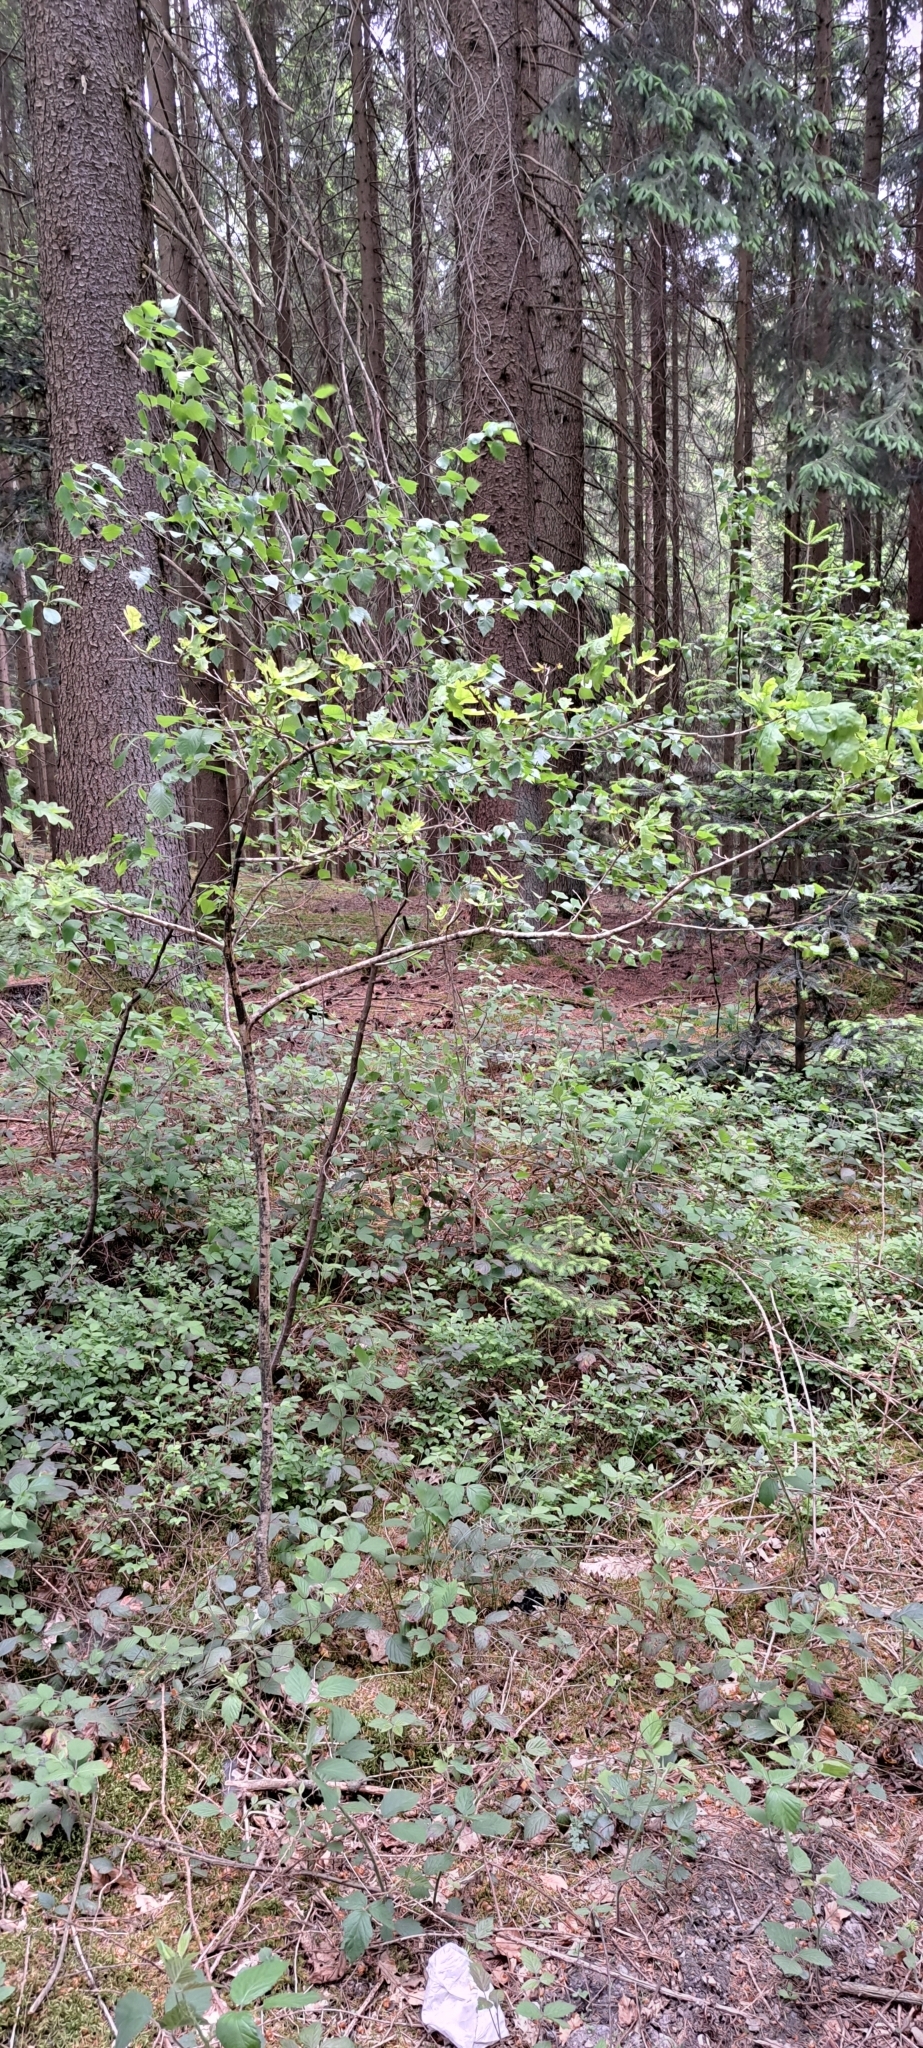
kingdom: Plantae
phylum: Tracheophyta
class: Magnoliopsida
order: Fagales
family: Fagaceae
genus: Quercus
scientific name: Quercus robur
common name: Pedunculate oak
